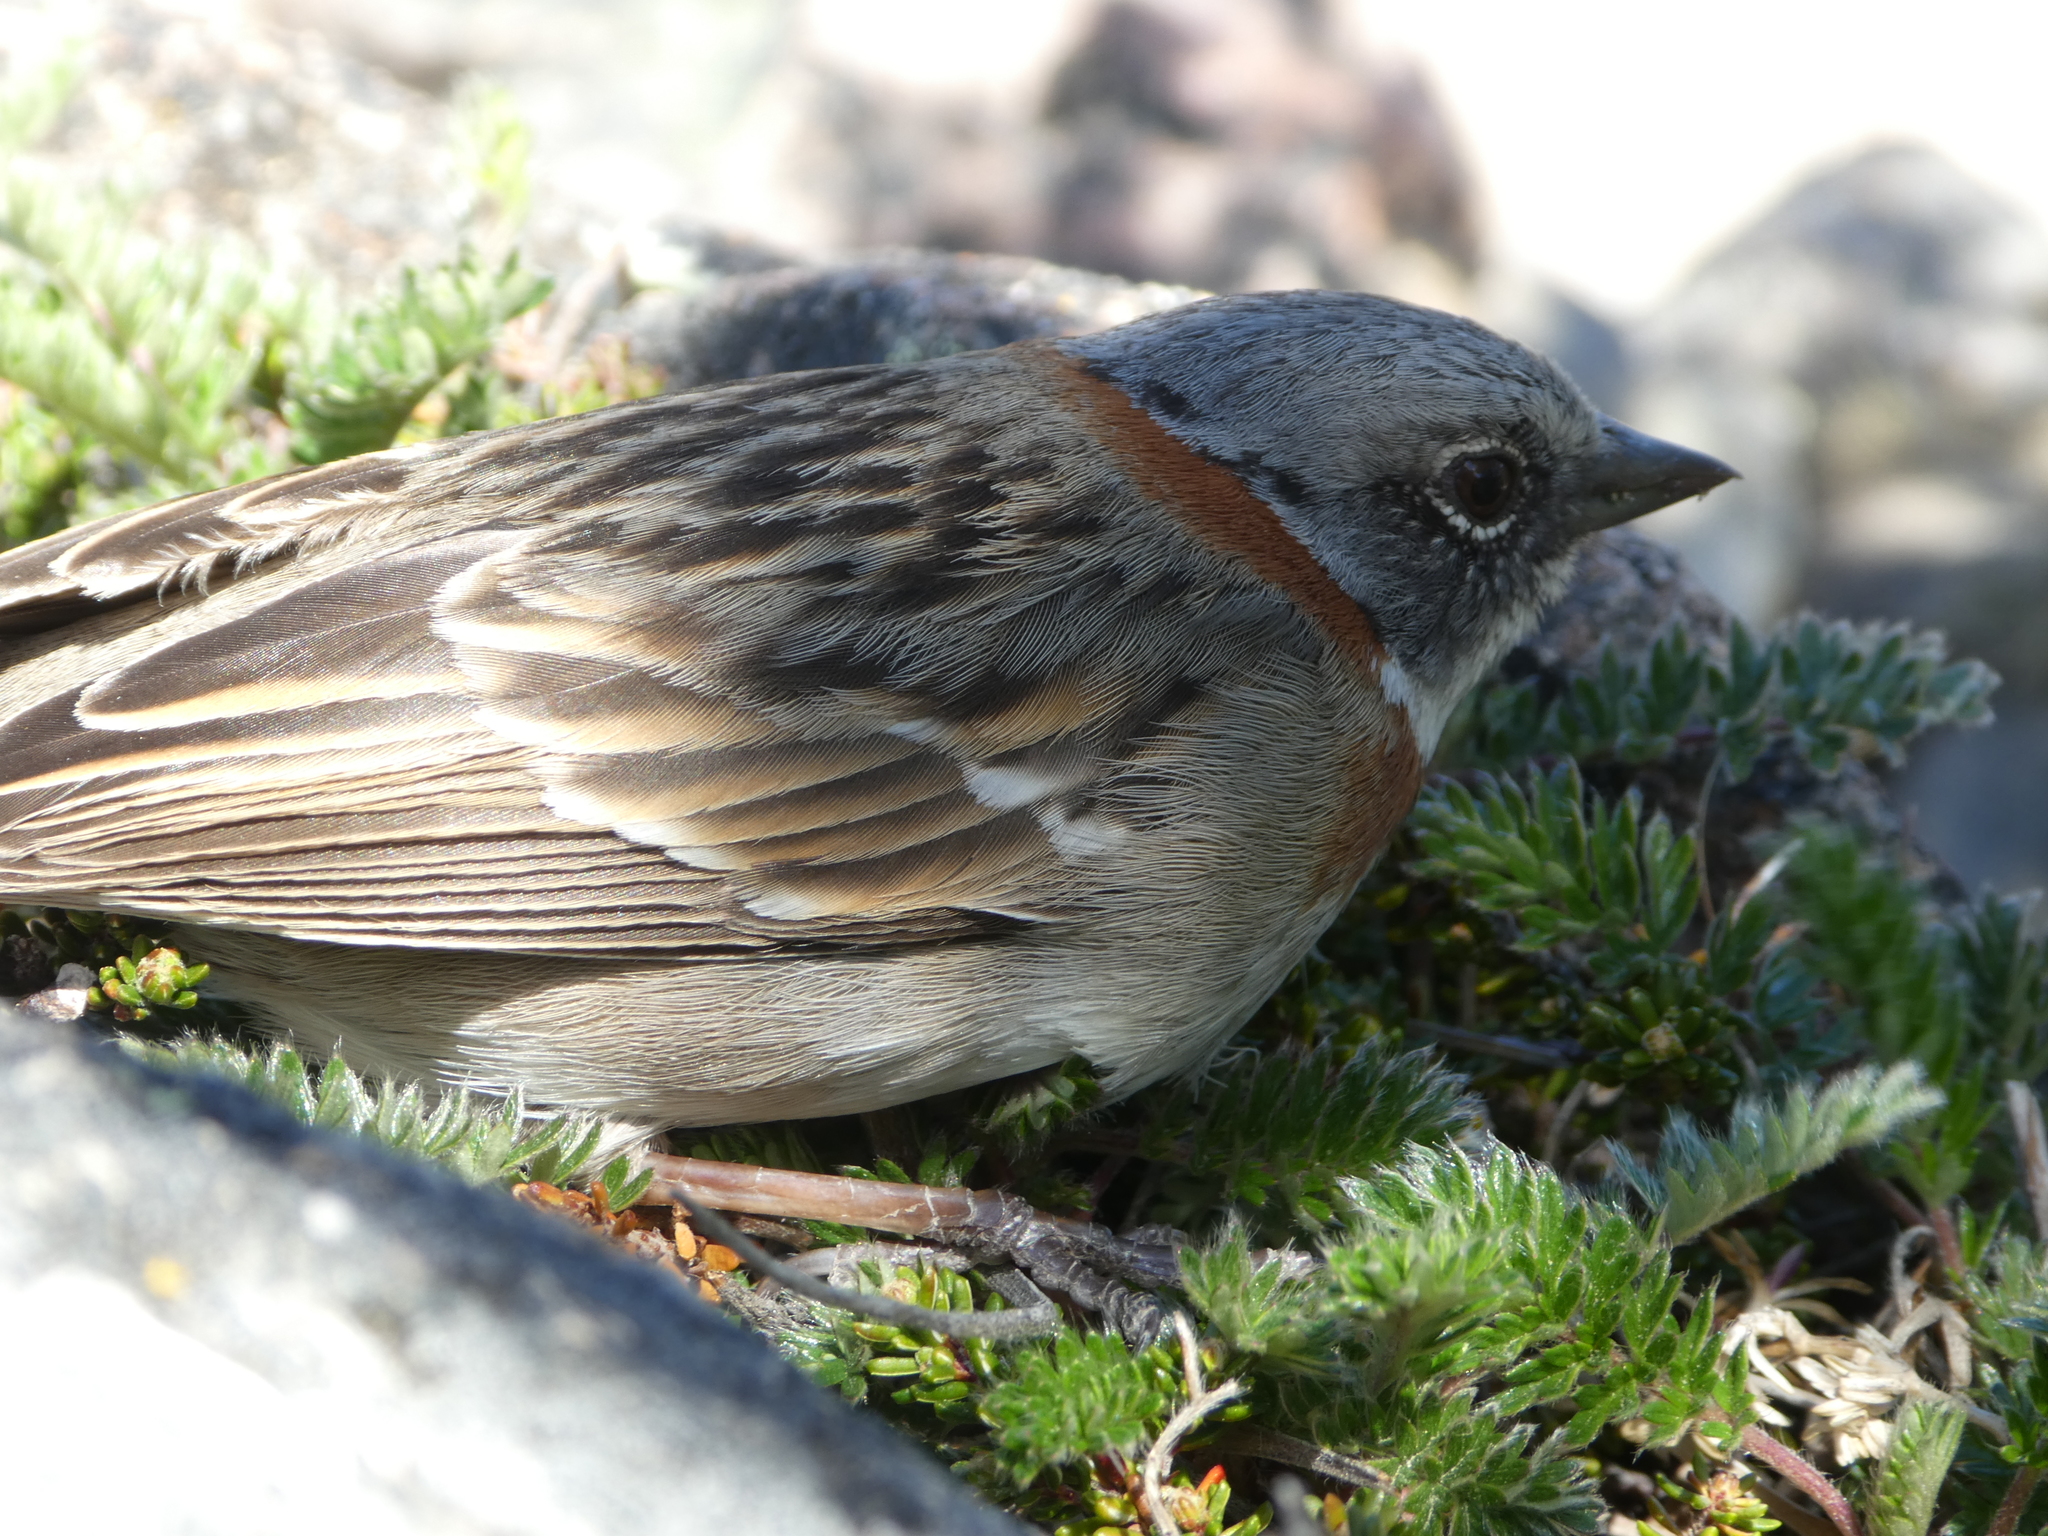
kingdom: Animalia
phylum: Chordata
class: Aves
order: Passeriformes
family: Passerellidae
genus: Zonotrichia
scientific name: Zonotrichia capensis
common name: Rufous-collared sparrow
